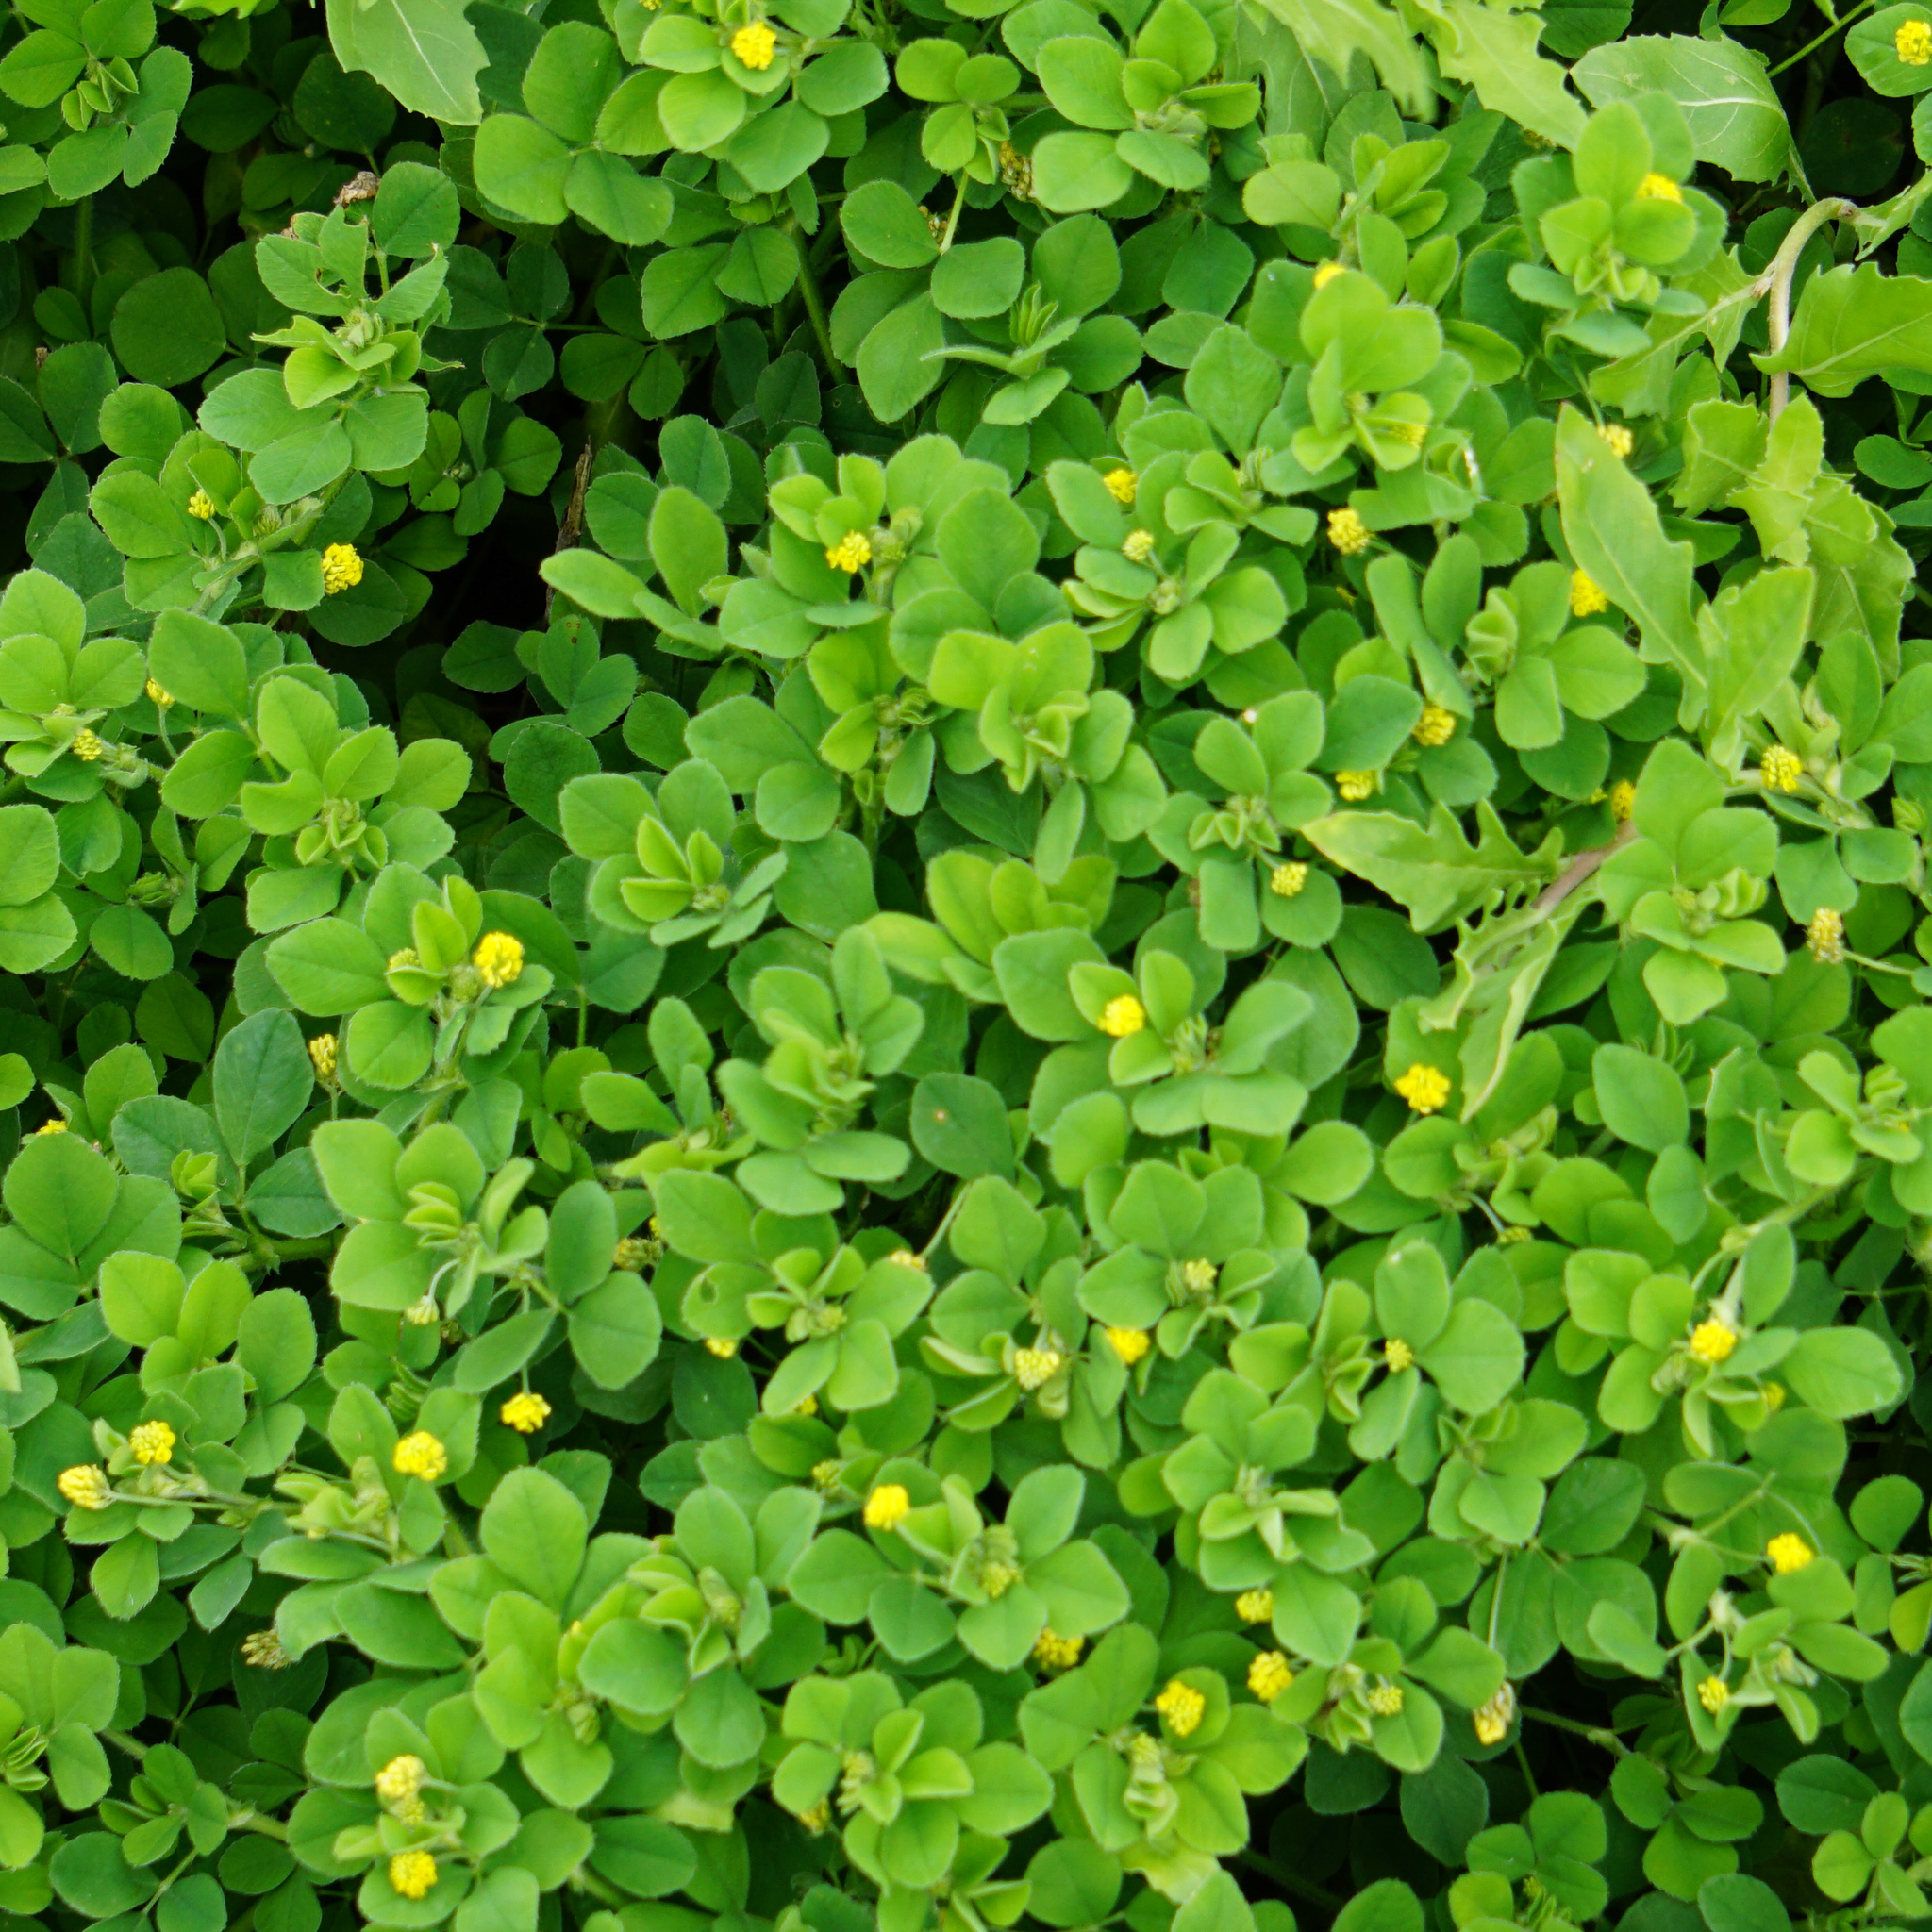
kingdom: Plantae
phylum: Tracheophyta
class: Magnoliopsida
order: Fabales
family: Fabaceae
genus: Medicago
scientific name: Medicago lupulina
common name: Black medick
